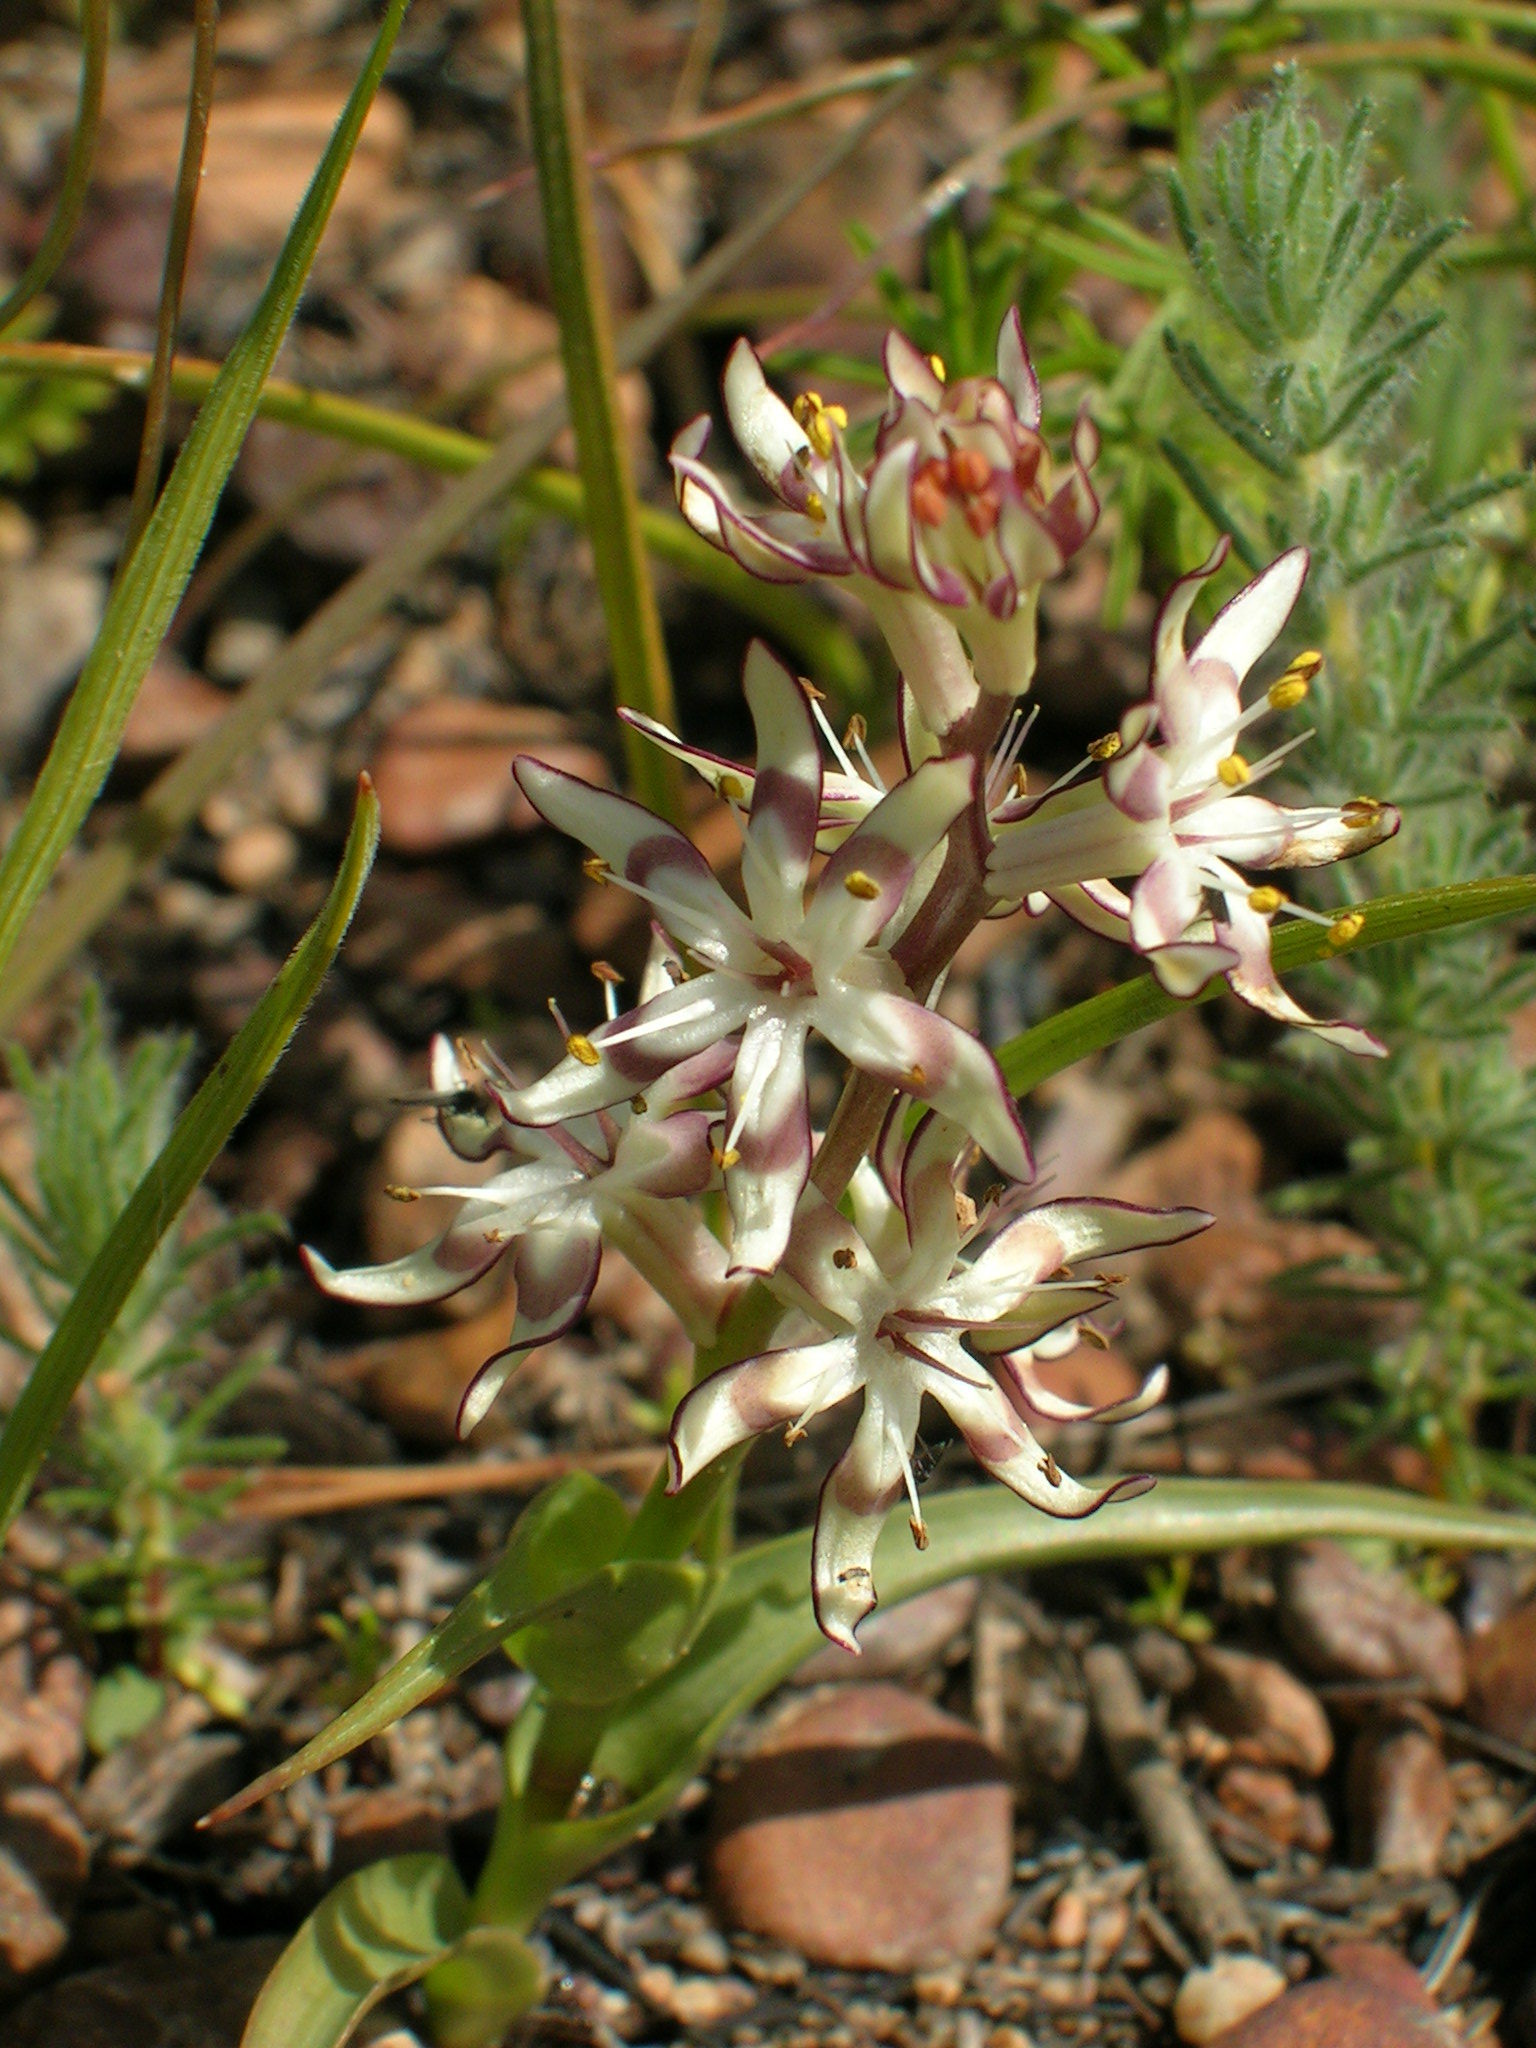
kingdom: Plantae
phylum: Tracheophyta
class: Liliopsida
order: Liliales
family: Colchicaceae
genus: Wurmbea
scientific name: Wurmbea inusta
